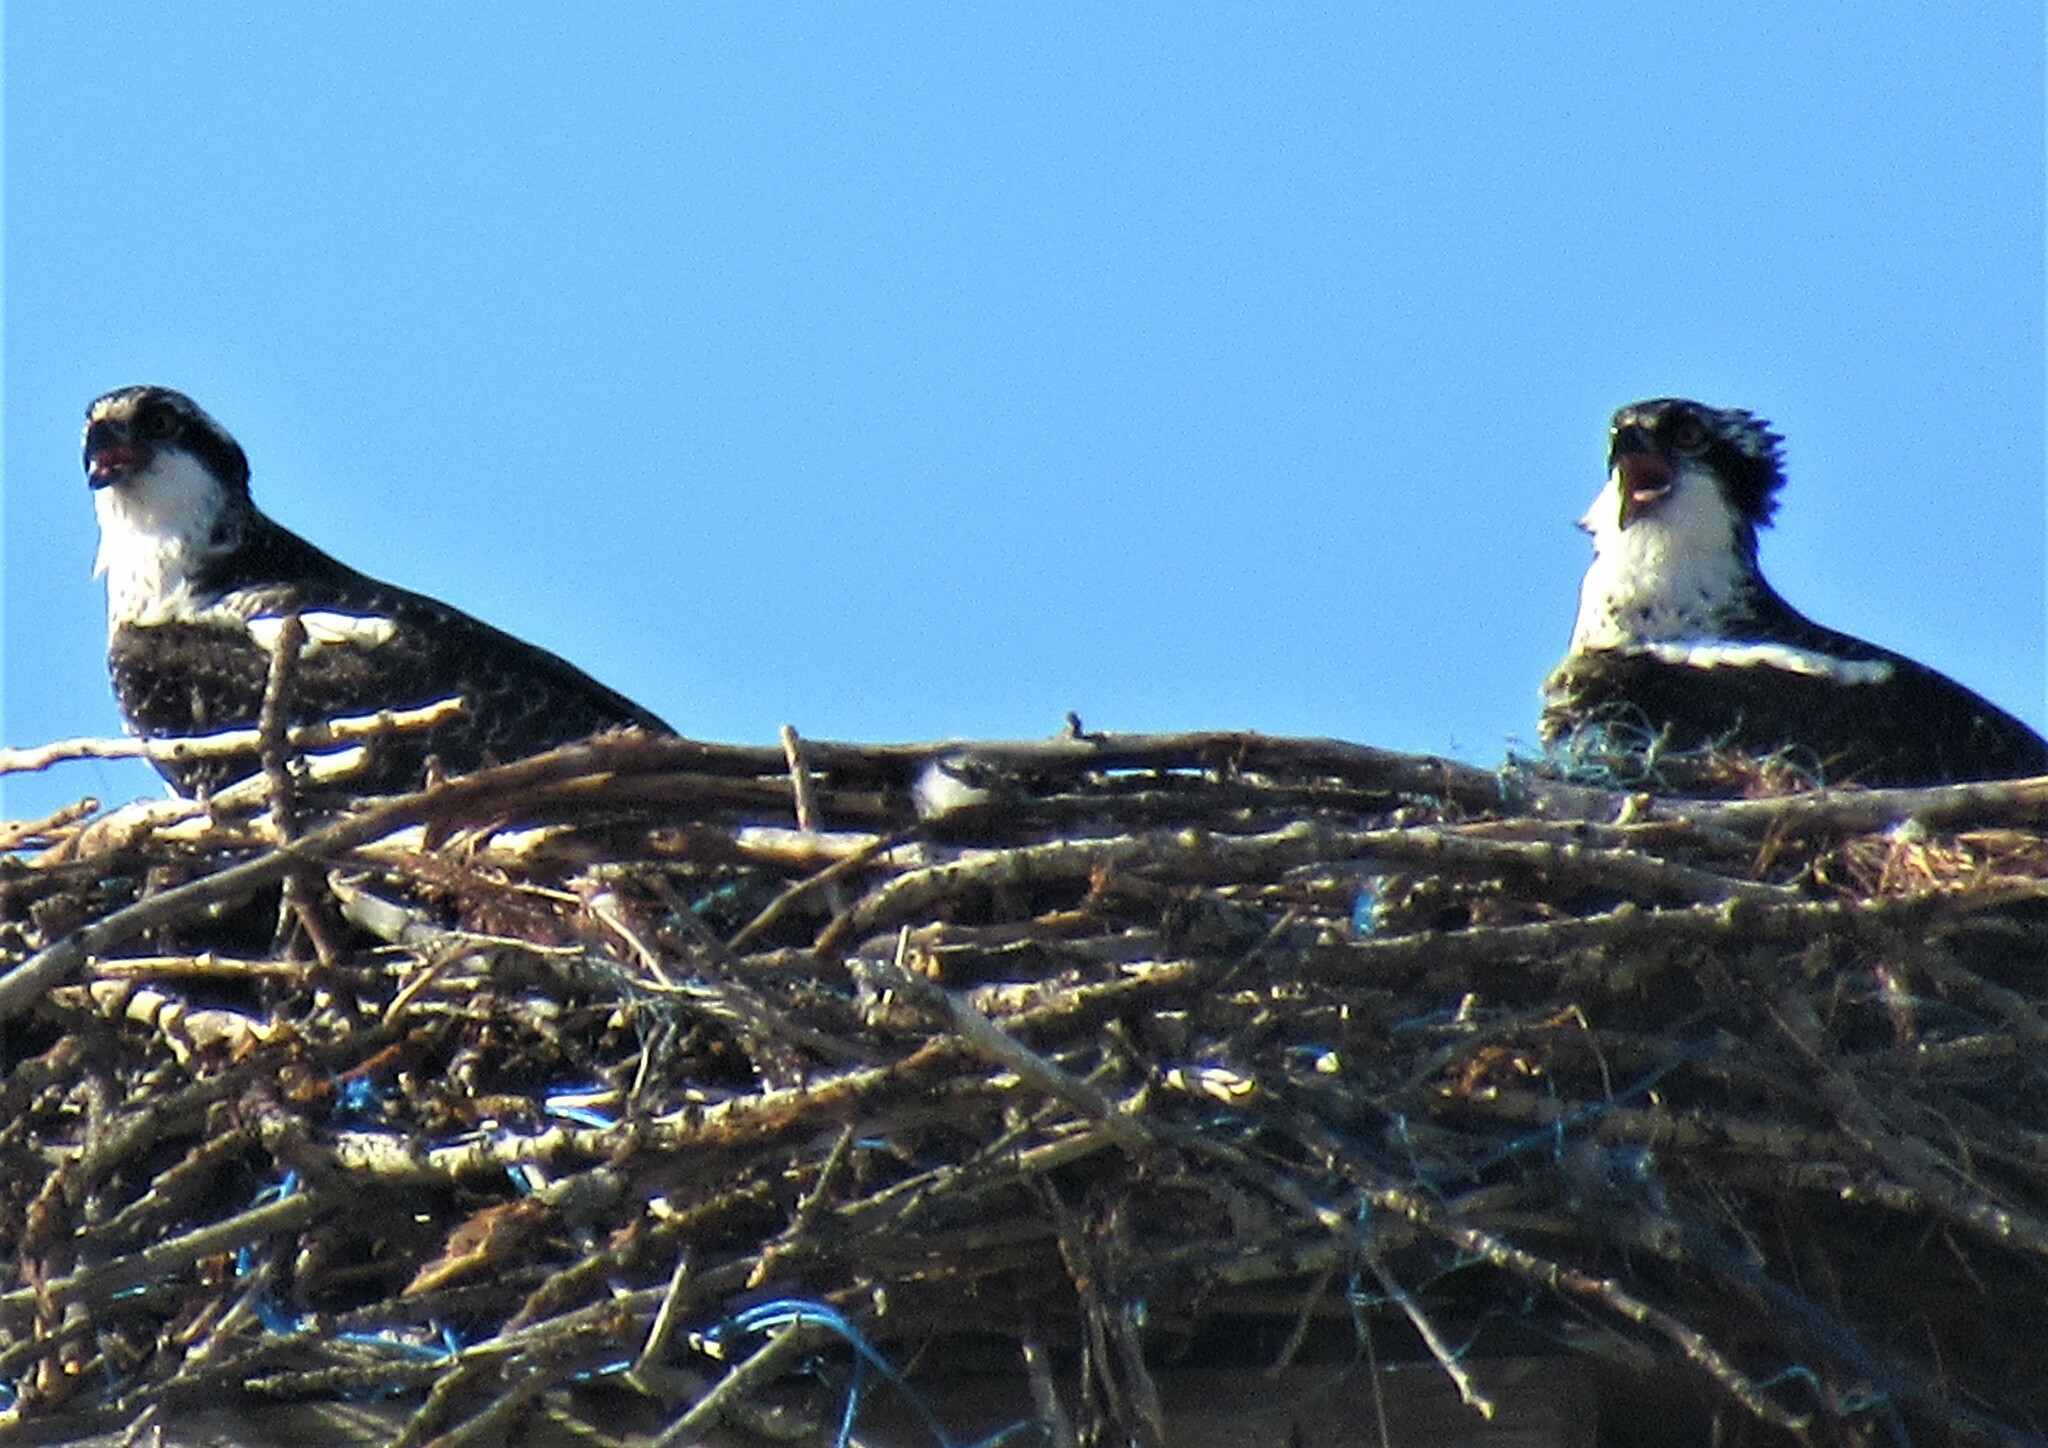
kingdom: Animalia
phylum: Chordata
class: Aves
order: Accipitriformes
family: Pandionidae
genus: Pandion
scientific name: Pandion haliaetus
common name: Osprey
